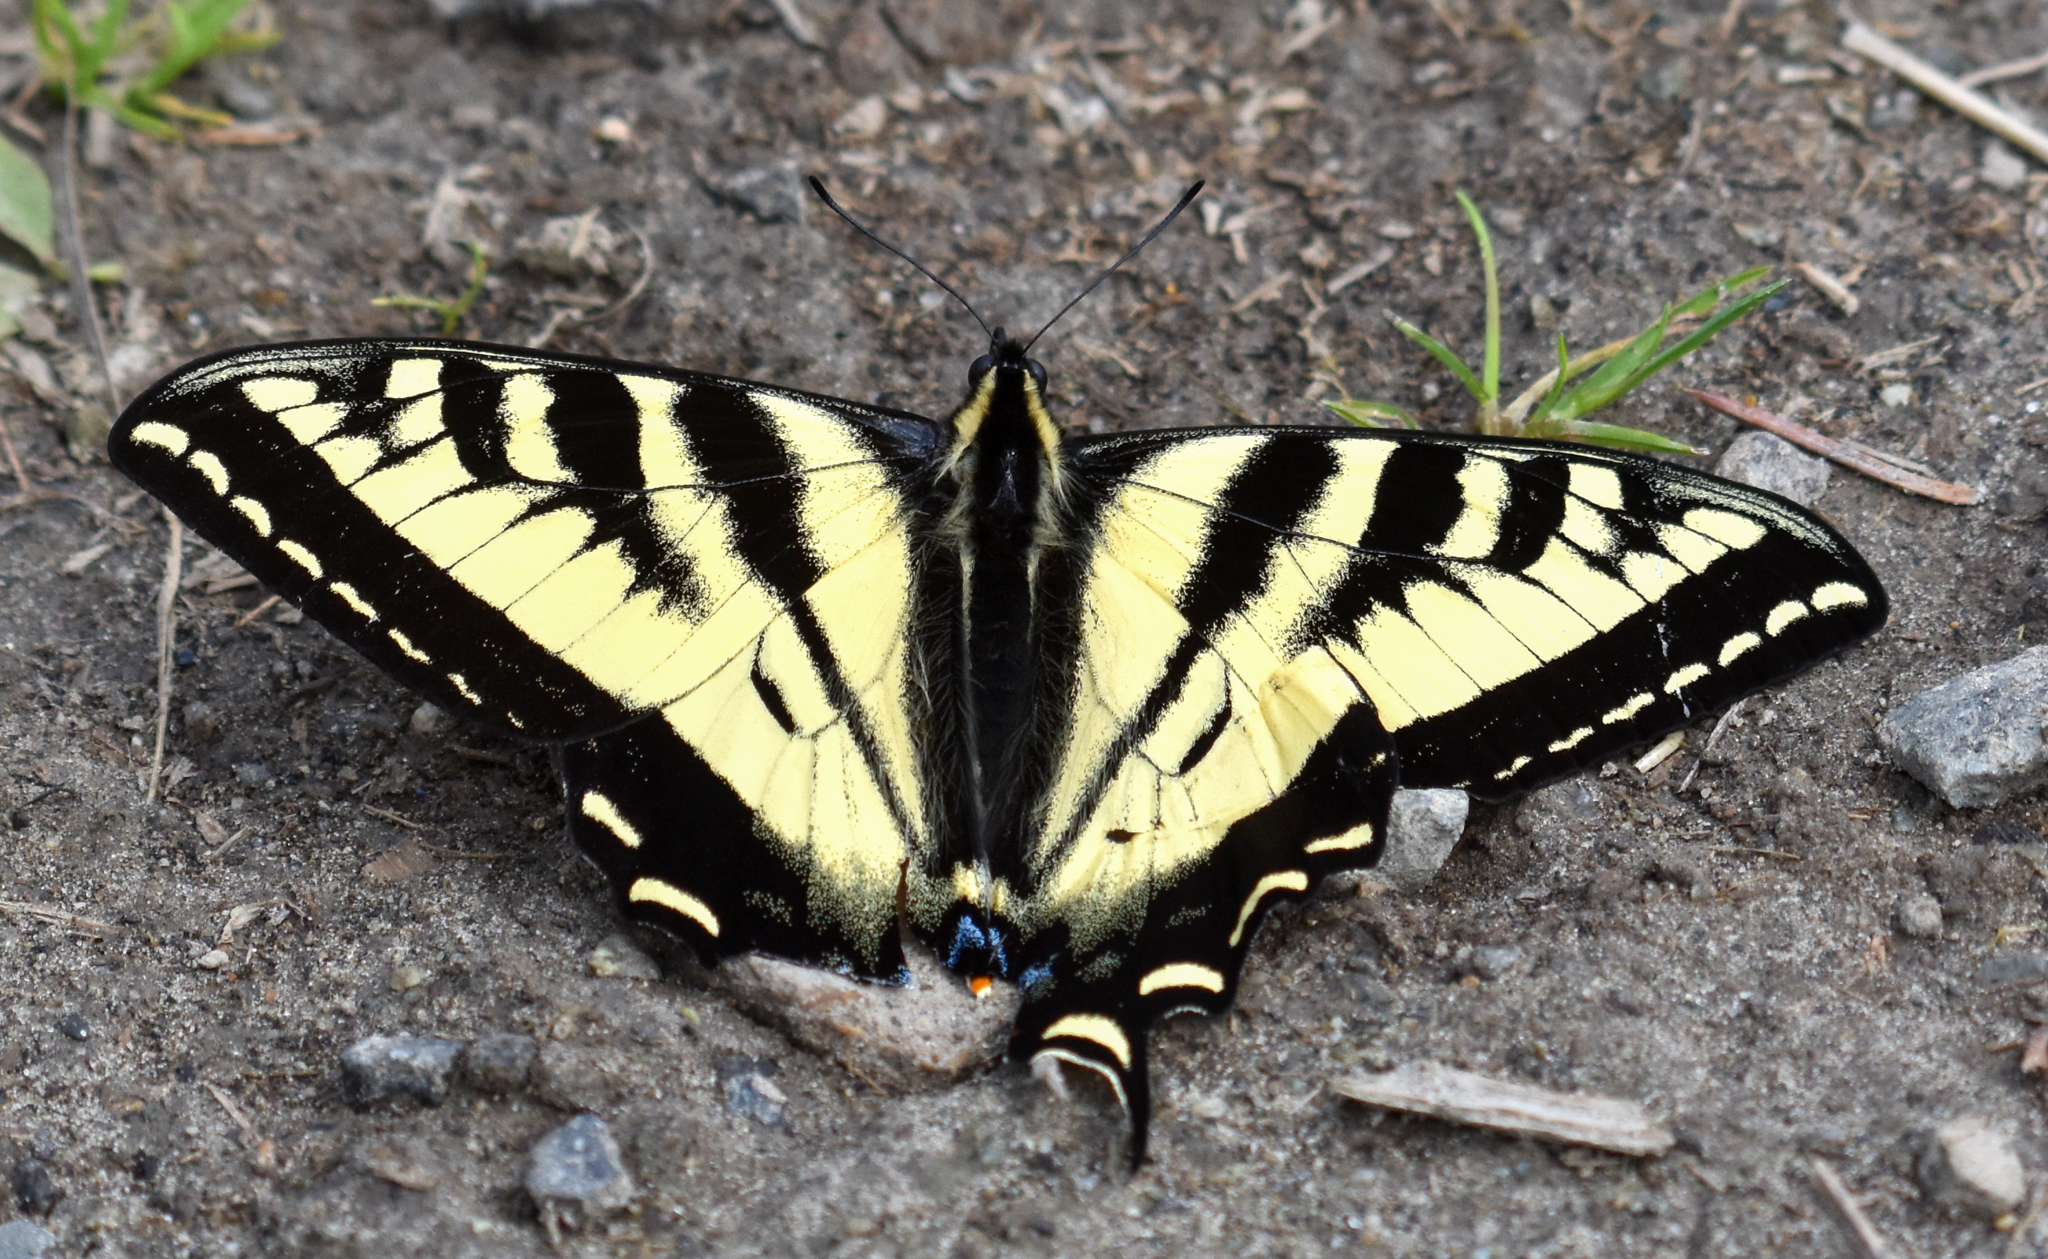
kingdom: Animalia
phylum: Arthropoda
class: Insecta
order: Lepidoptera
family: Papilionidae
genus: Papilio
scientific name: Papilio rutulus
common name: Western tiger swallowtail
